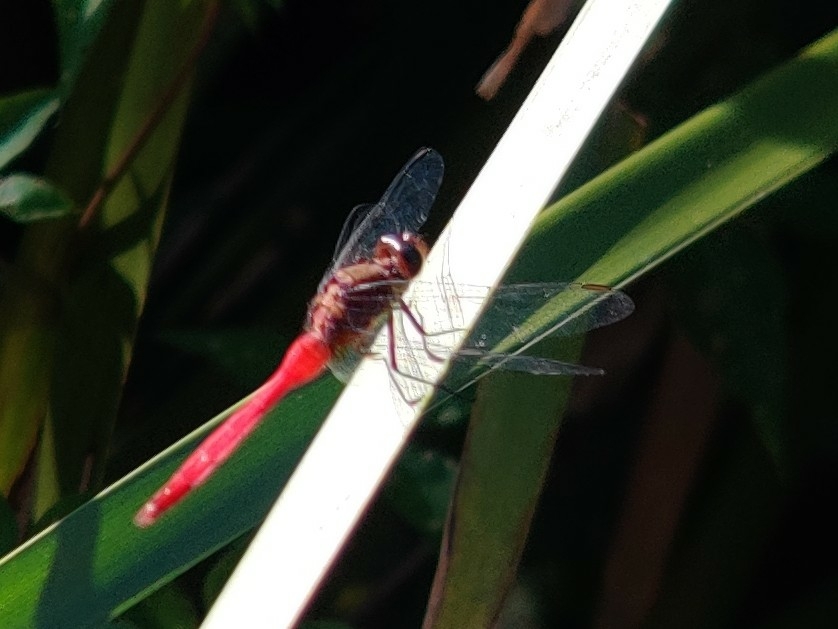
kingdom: Animalia
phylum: Arthropoda
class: Insecta
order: Odonata
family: Libellulidae
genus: Orthetrum
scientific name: Orthetrum villosovittatum
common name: Firery skimmer
